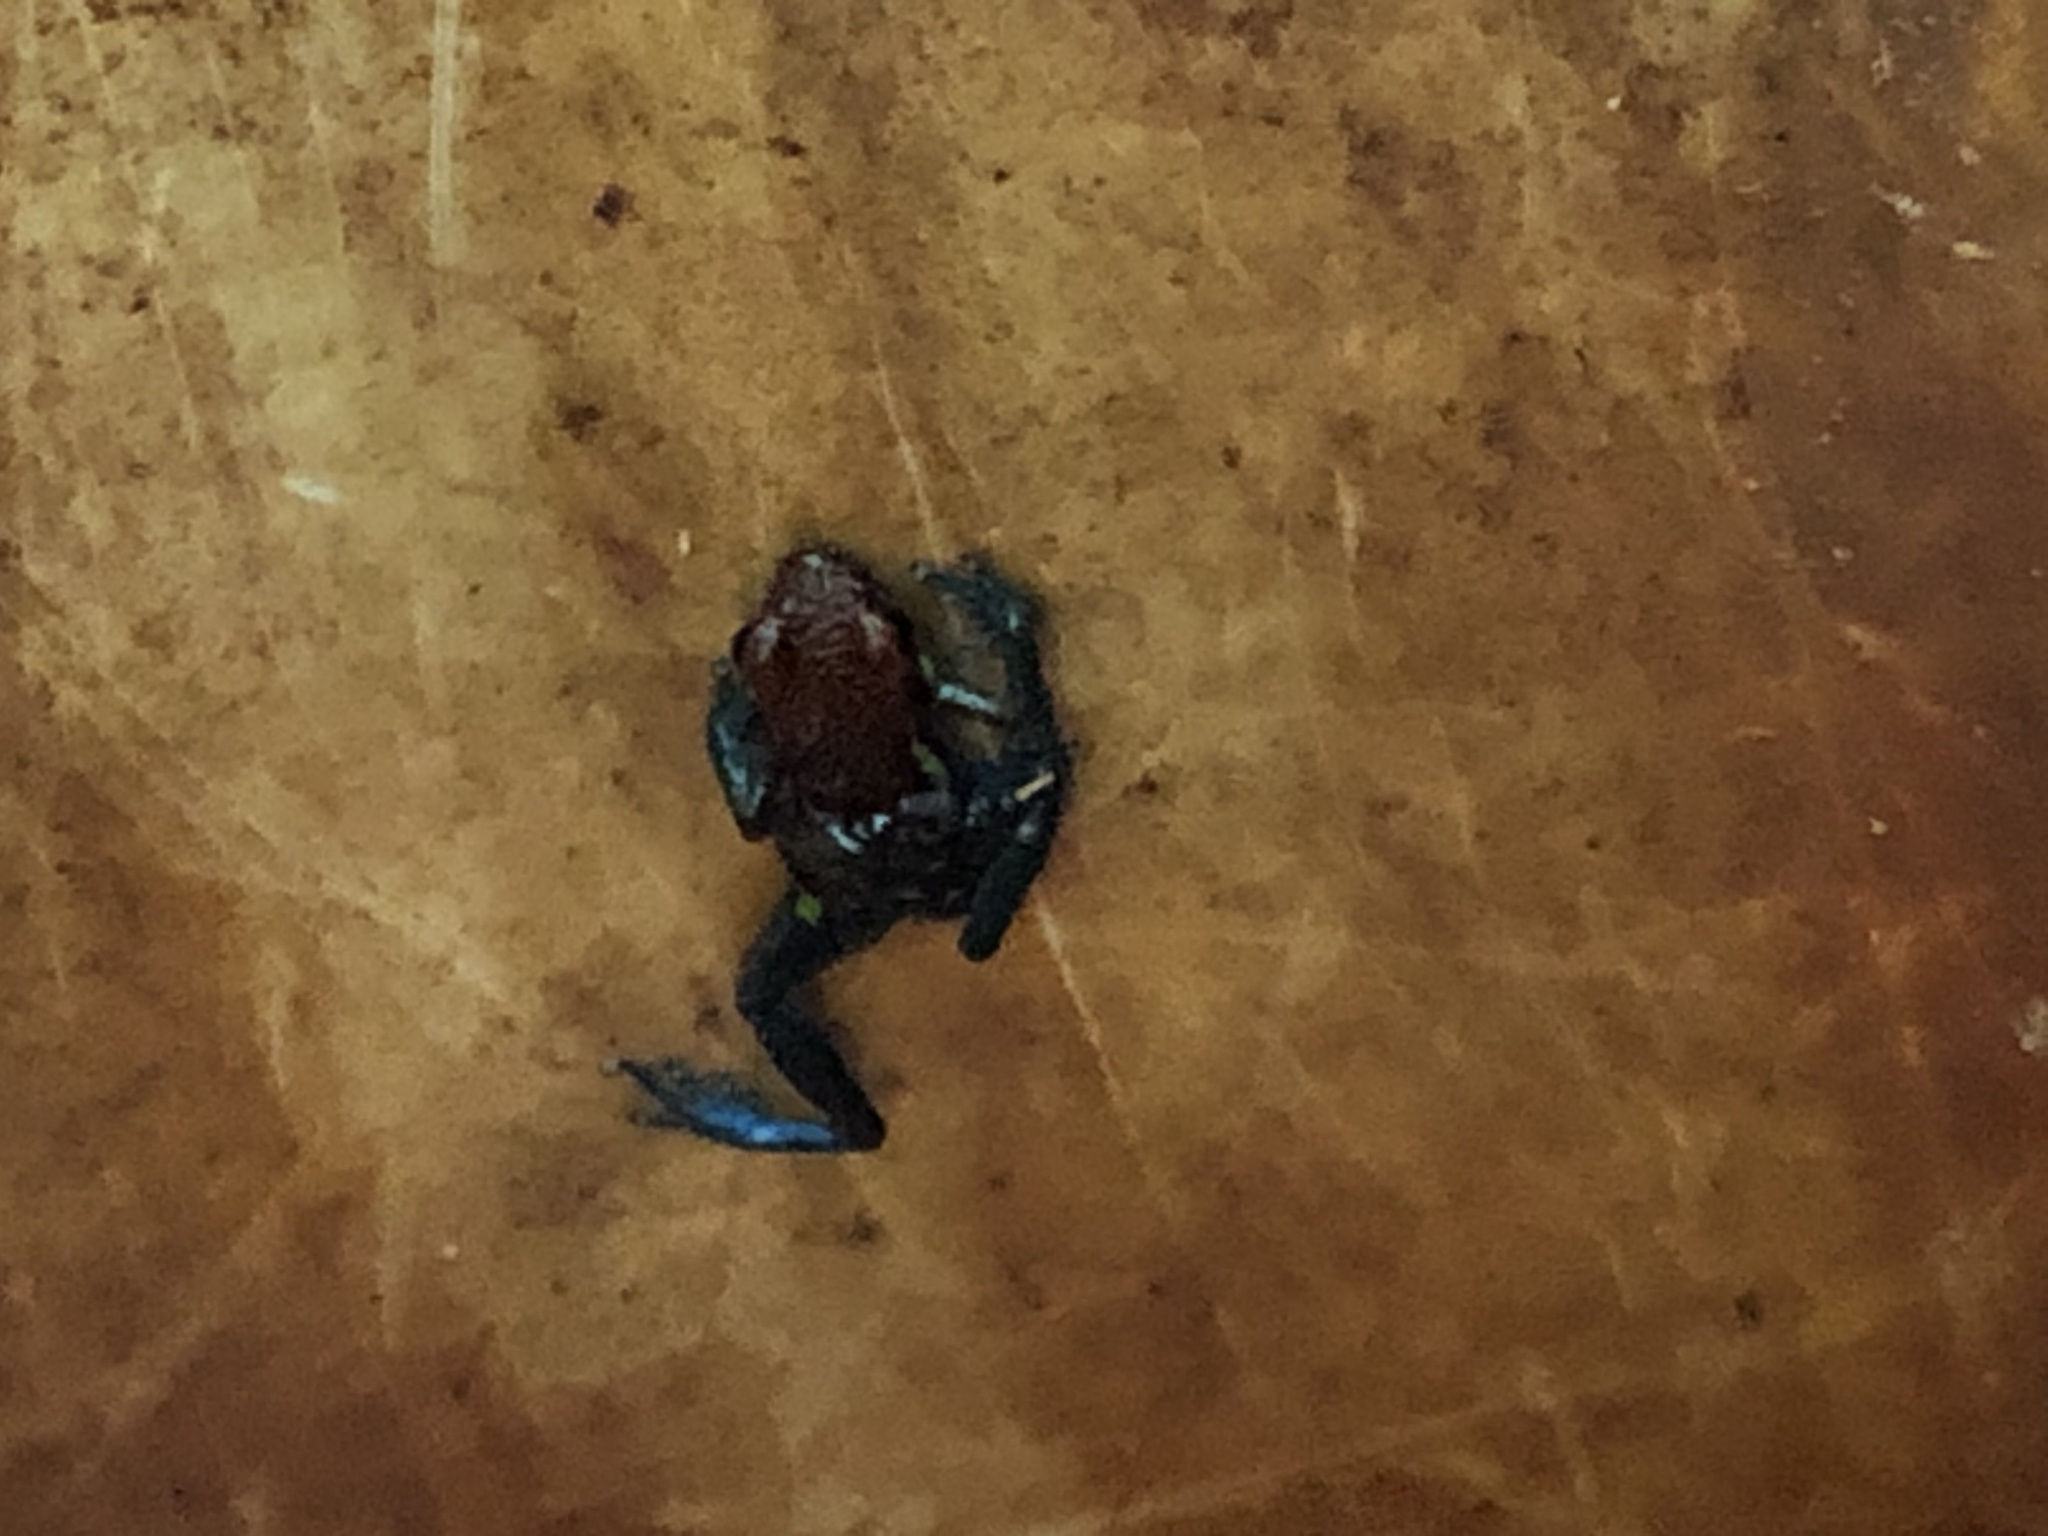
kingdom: Animalia
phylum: Chordata
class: Amphibia
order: Anura
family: Dendrobatidae
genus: Ameerega
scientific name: Ameerega macero
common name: Manu poison frog
